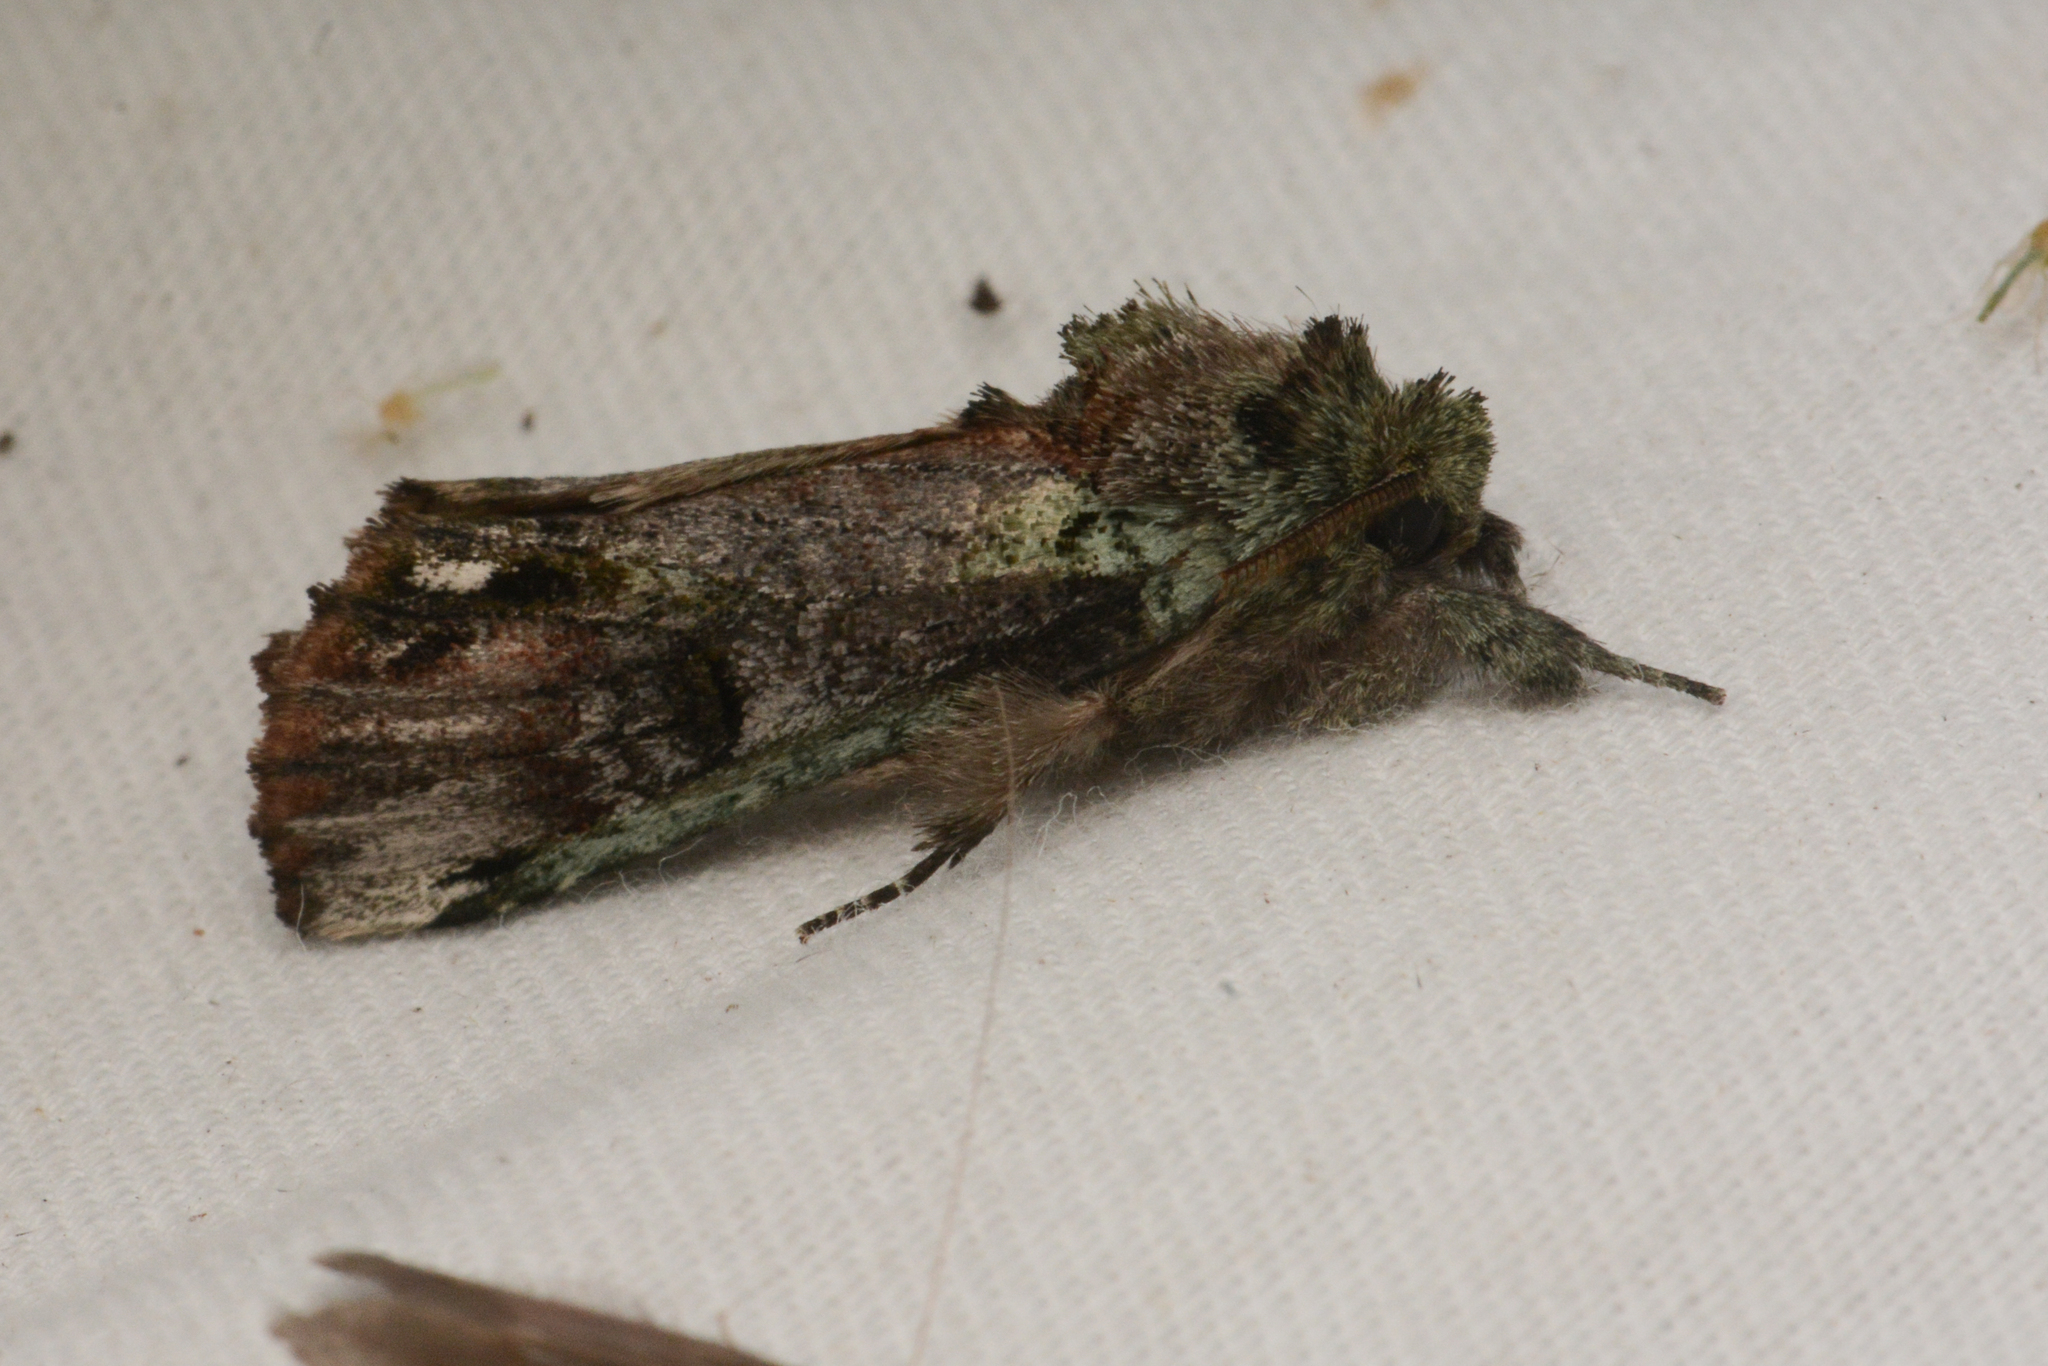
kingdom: Animalia
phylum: Arthropoda
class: Insecta
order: Lepidoptera
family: Notodontidae
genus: Schizura
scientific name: Schizura
